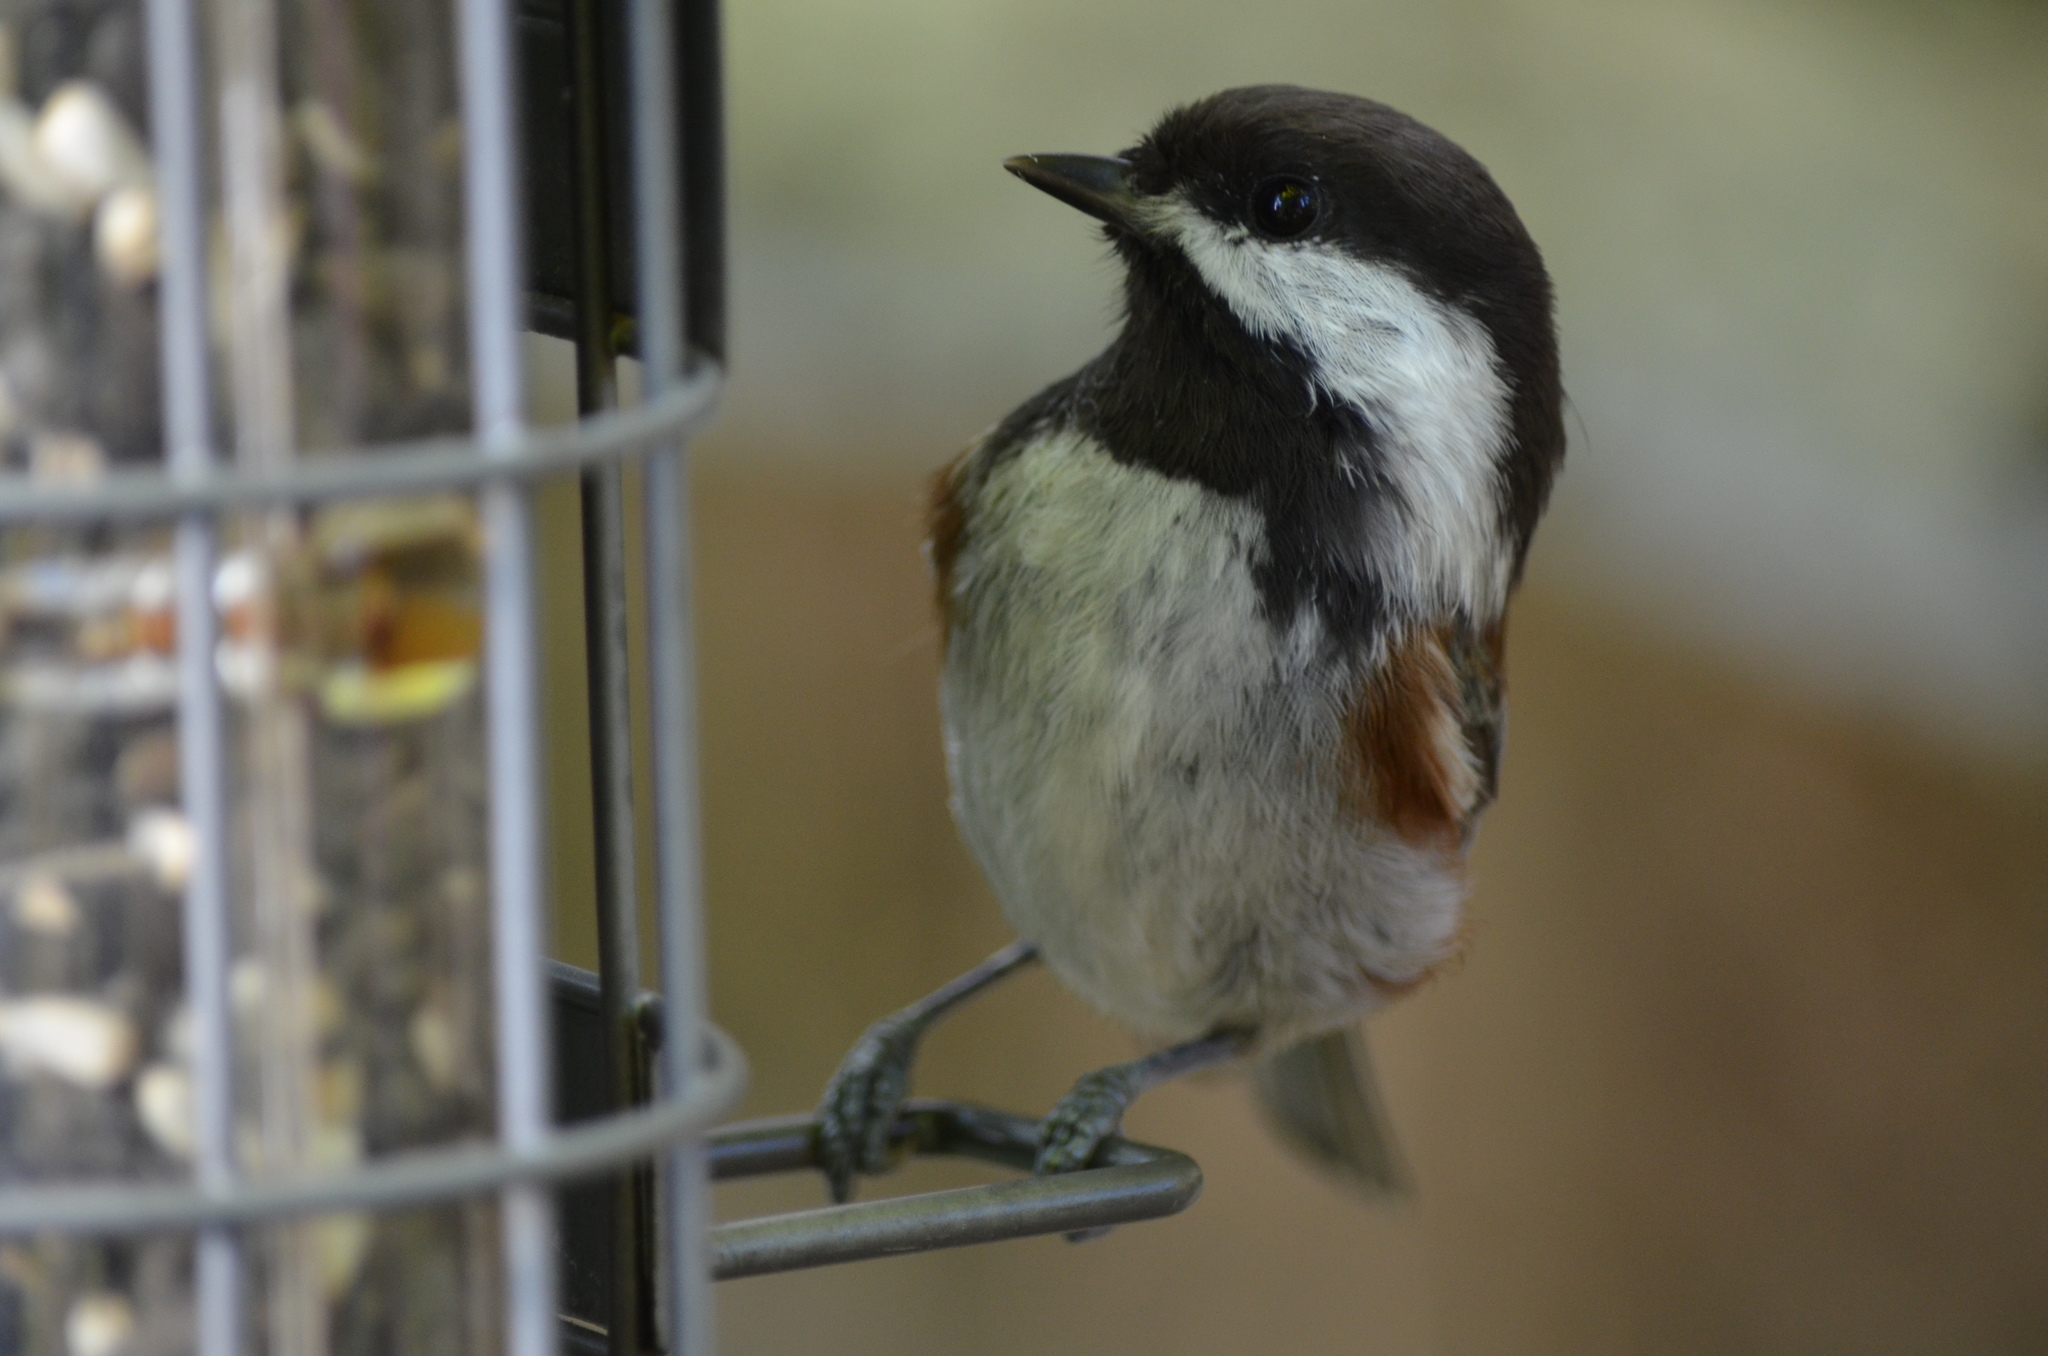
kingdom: Animalia
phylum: Chordata
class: Aves
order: Passeriformes
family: Paridae
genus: Poecile
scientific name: Poecile rufescens
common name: Chestnut-backed chickadee
